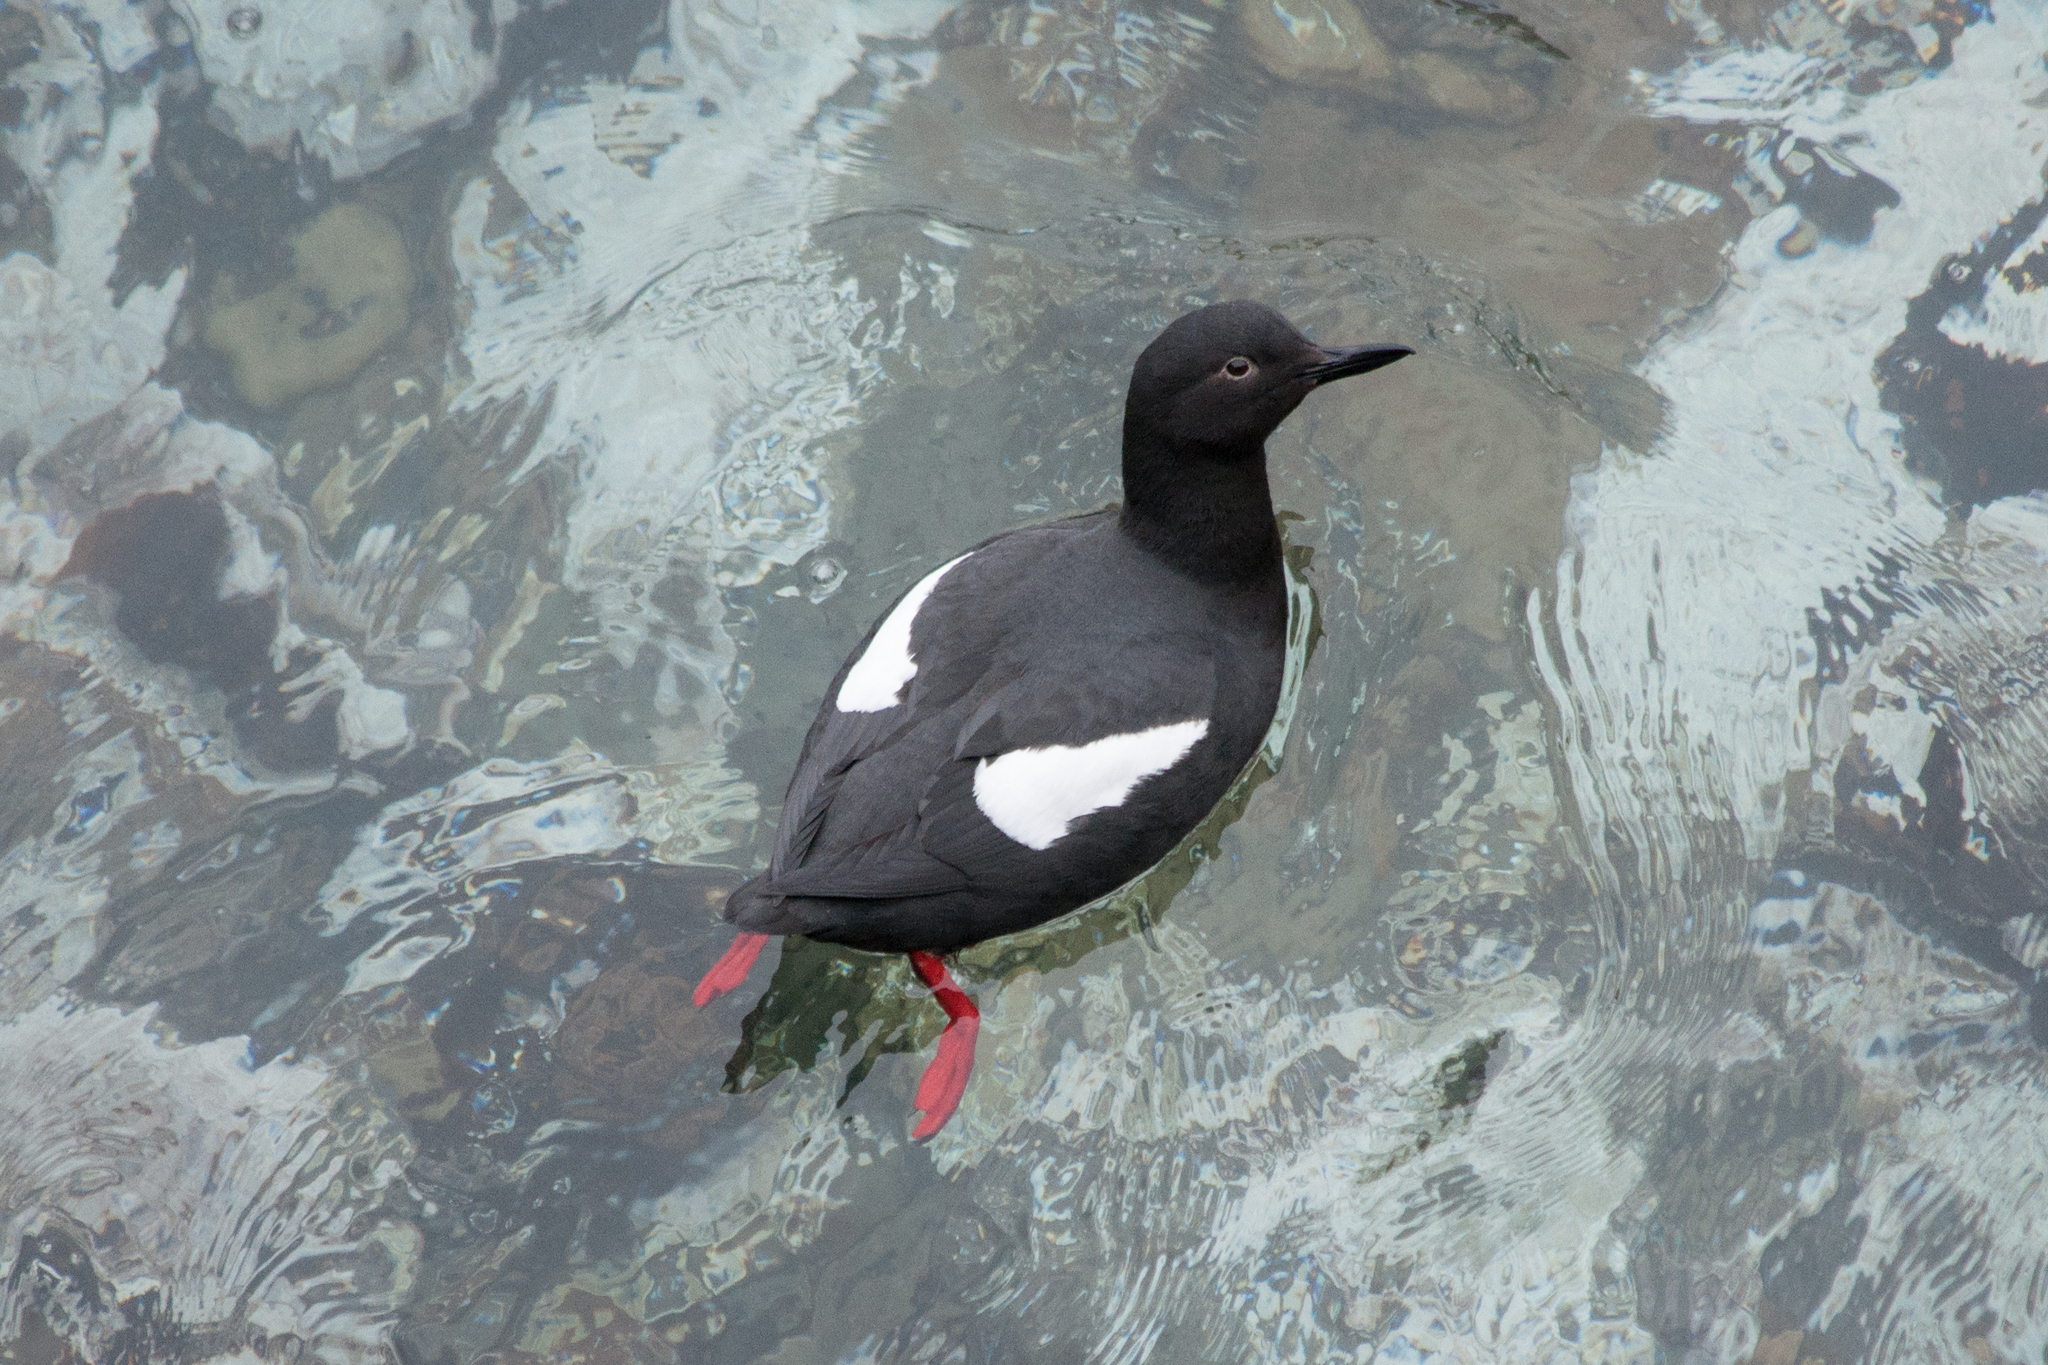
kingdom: Animalia
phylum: Chordata
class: Aves
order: Charadriiformes
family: Alcidae
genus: Cepphus
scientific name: Cepphus columba
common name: Pigeon guillemot
